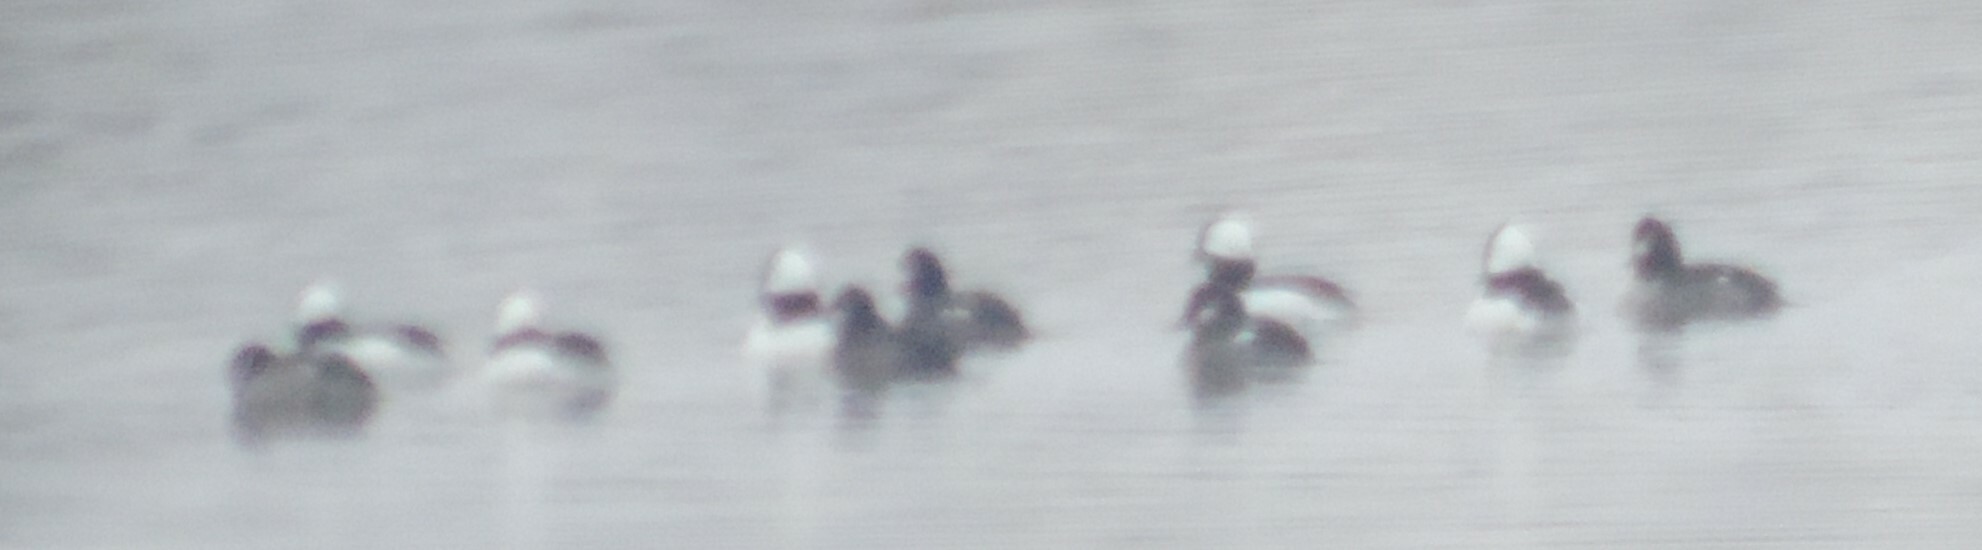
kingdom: Animalia
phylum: Chordata
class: Aves
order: Anseriformes
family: Anatidae
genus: Bucephala
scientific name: Bucephala albeola
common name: Bufflehead
